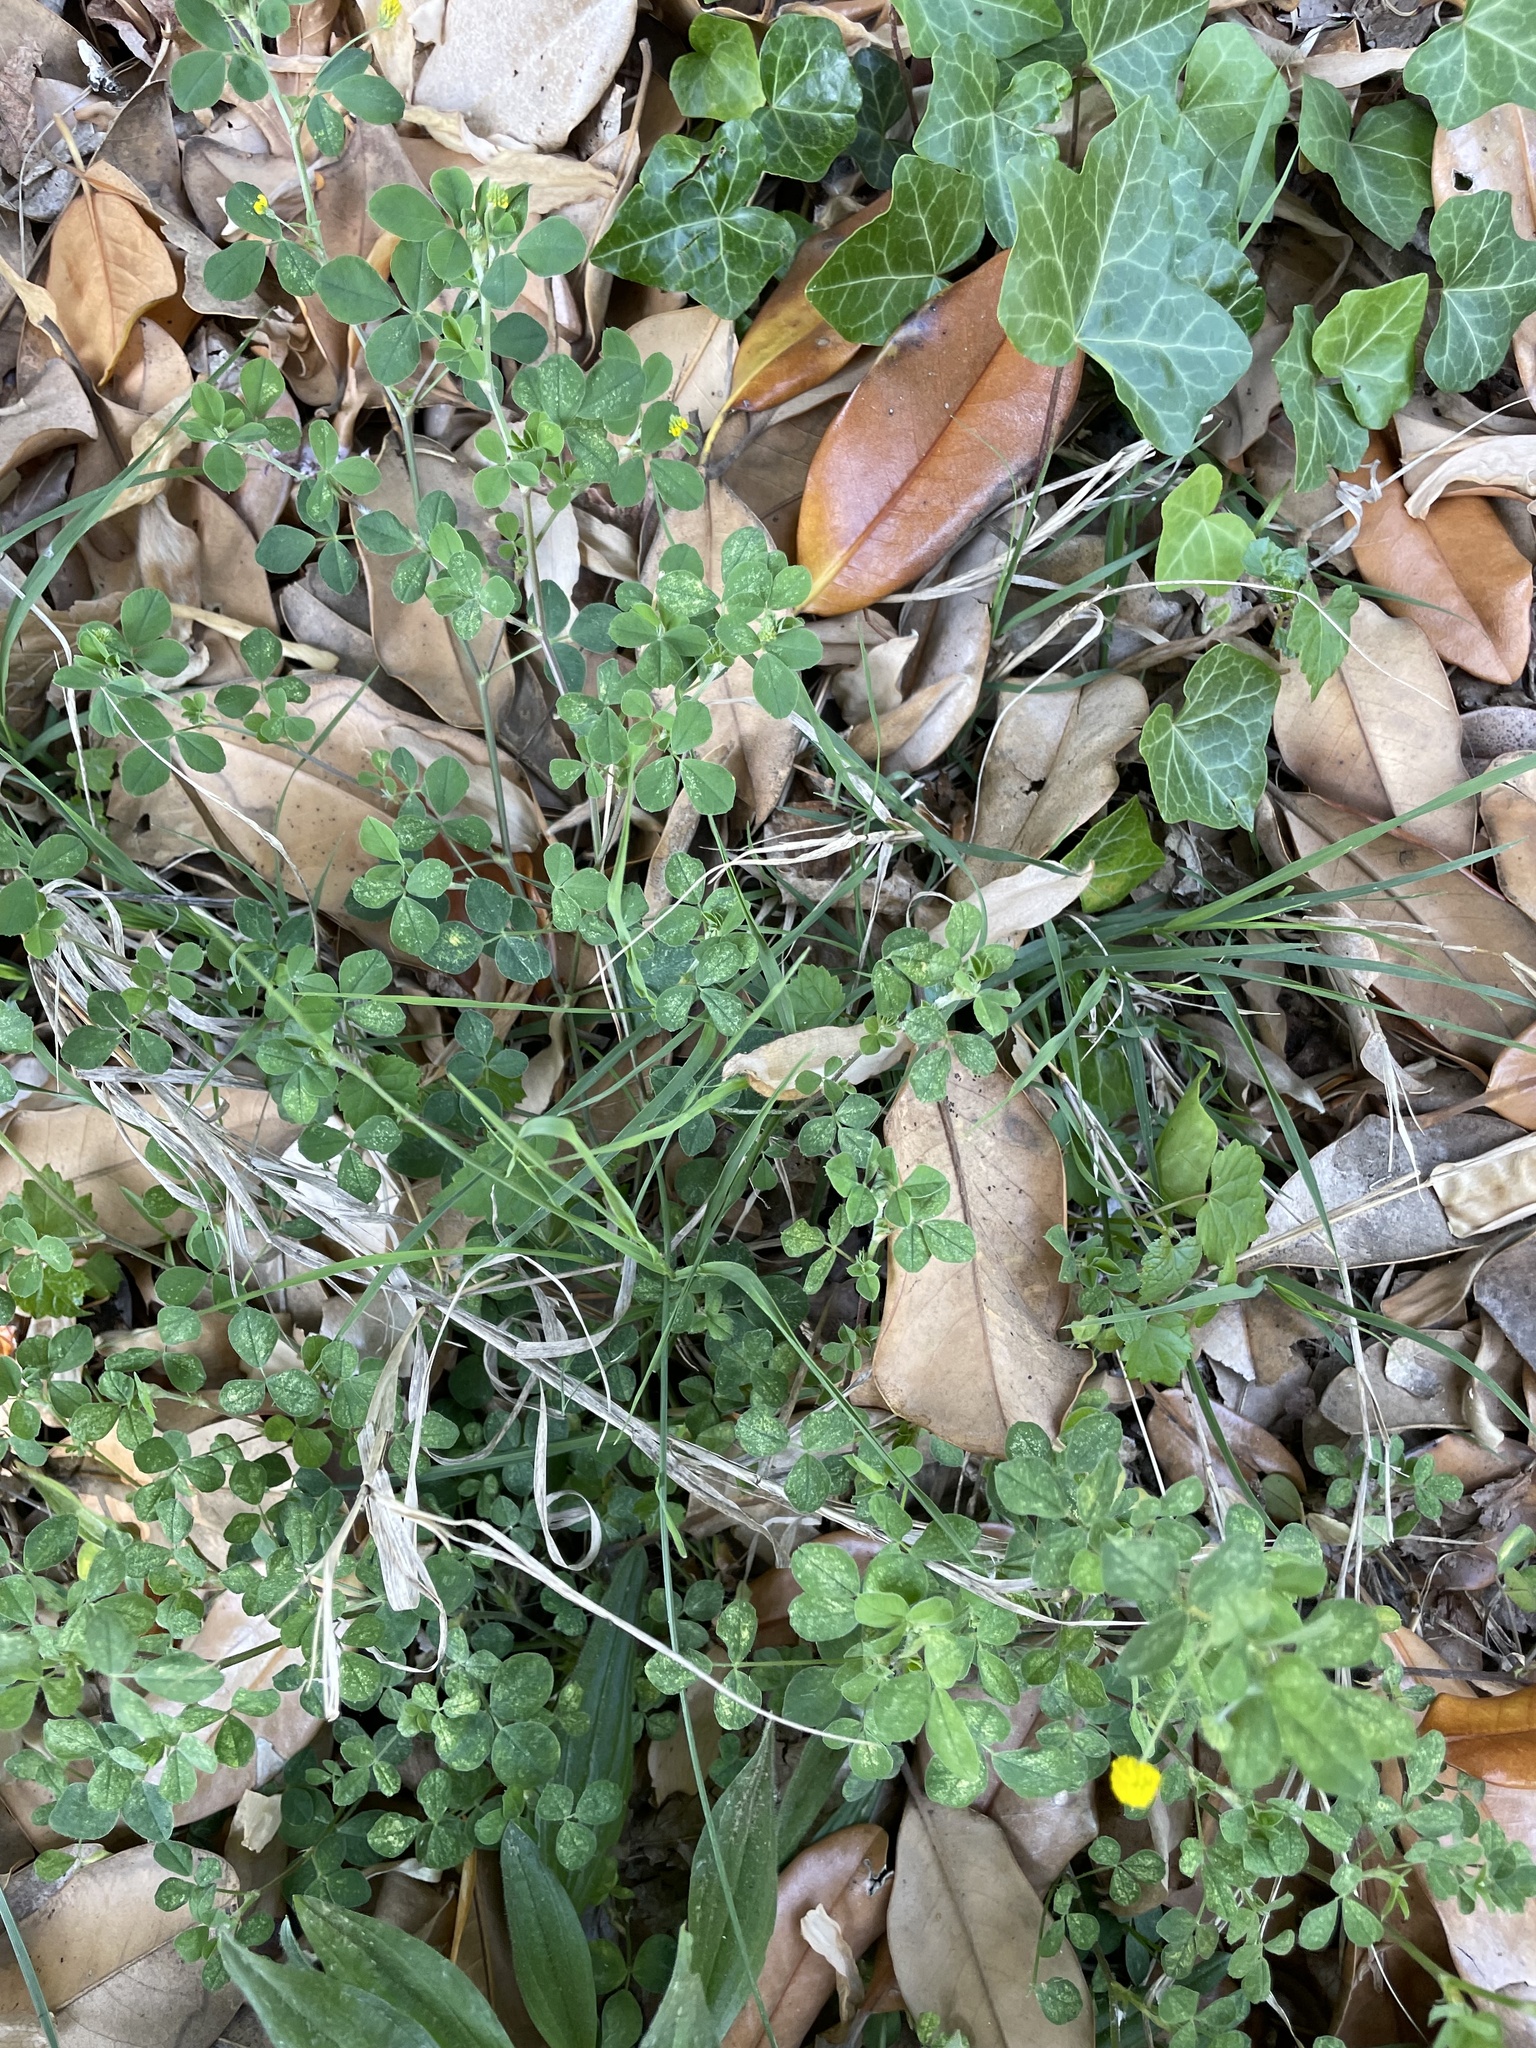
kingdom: Plantae
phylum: Tracheophyta
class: Magnoliopsida
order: Fabales
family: Fabaceae
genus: Medicago
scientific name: Medicago lupulina
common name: Black medick
